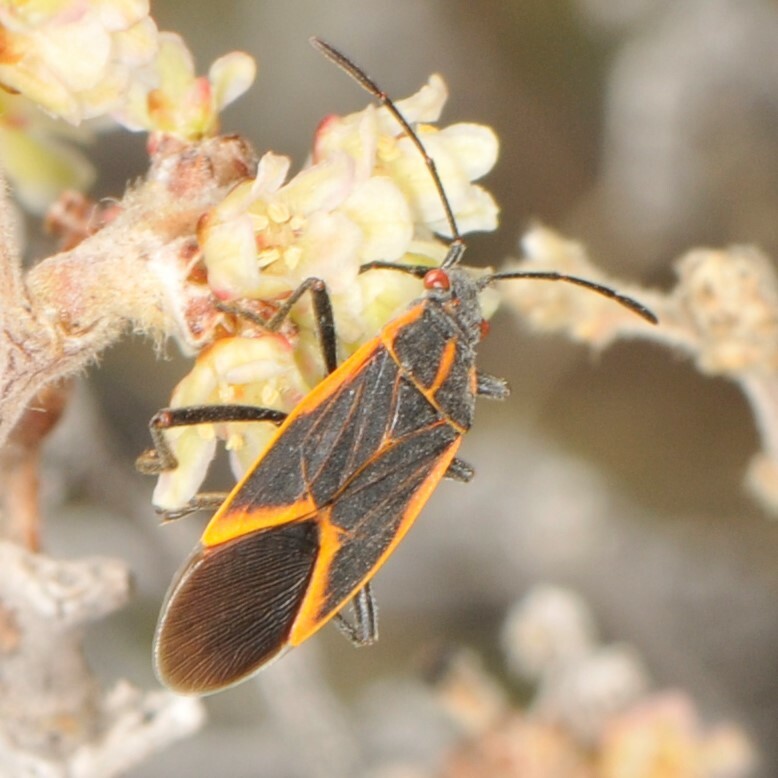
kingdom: Animalia
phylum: Arthropoda
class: Insecta
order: Hemiptera
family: Rhopalidae
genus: Boisea
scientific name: Boisea trivittata
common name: Boxelder bug
